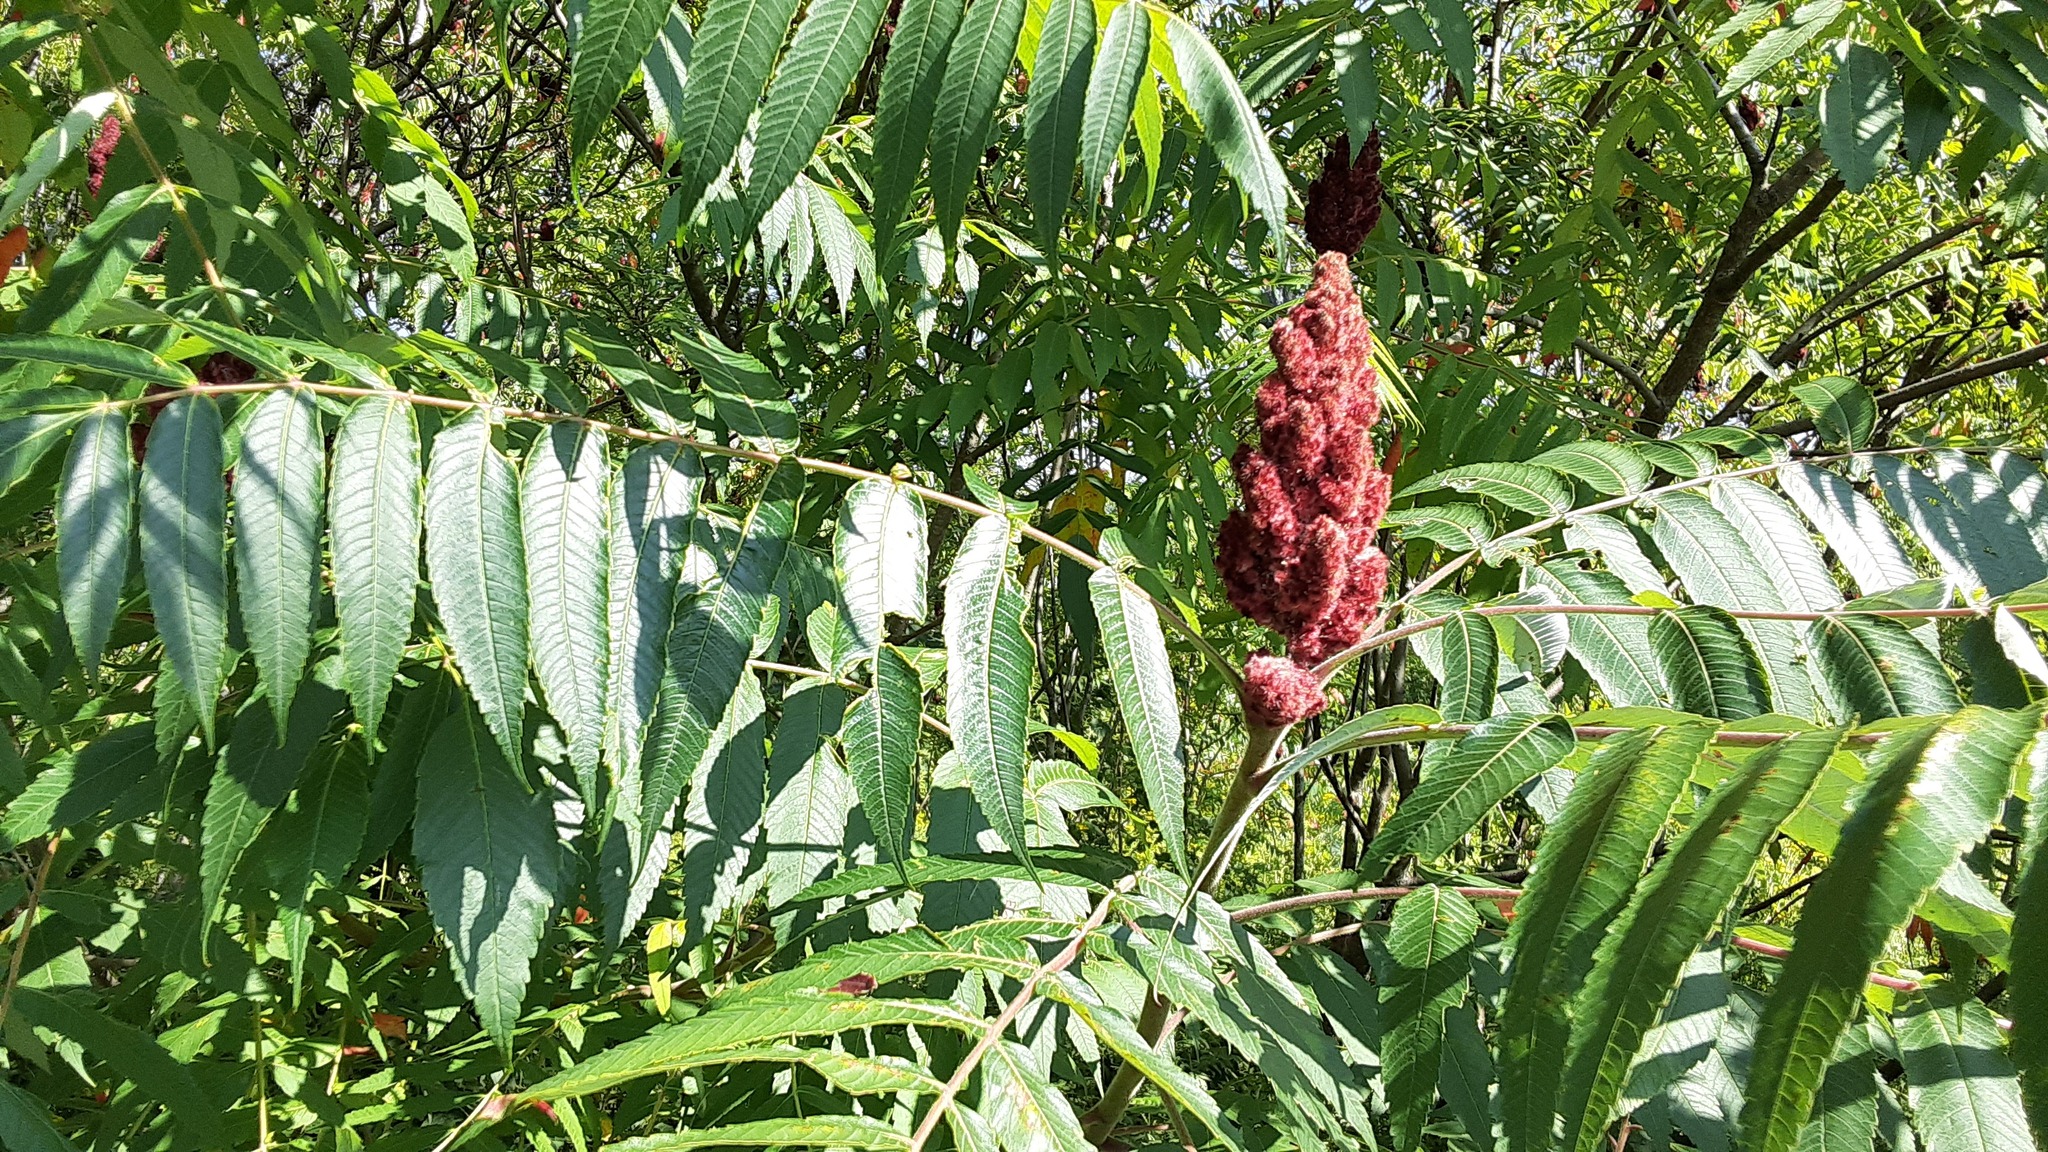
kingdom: Plantae
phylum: Tracheophyta
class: Magnoliopsida
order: Sapindales
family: Anacardiaceae
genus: Rhus
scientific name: Rhus typhina
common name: Staghorn sumac
